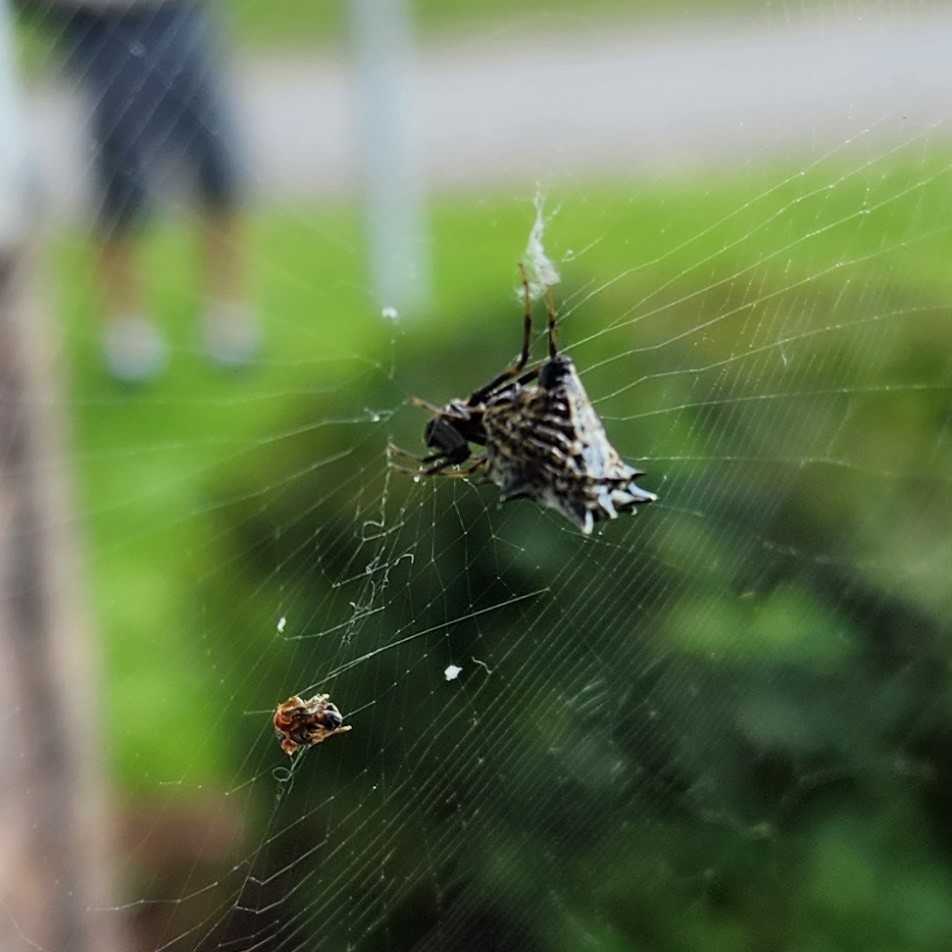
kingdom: Animalia
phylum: Arthropoda
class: Arachnida
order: Araneae
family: Araneidae
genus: Micrathena
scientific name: Micrathena gracilis
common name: Orb weavers
